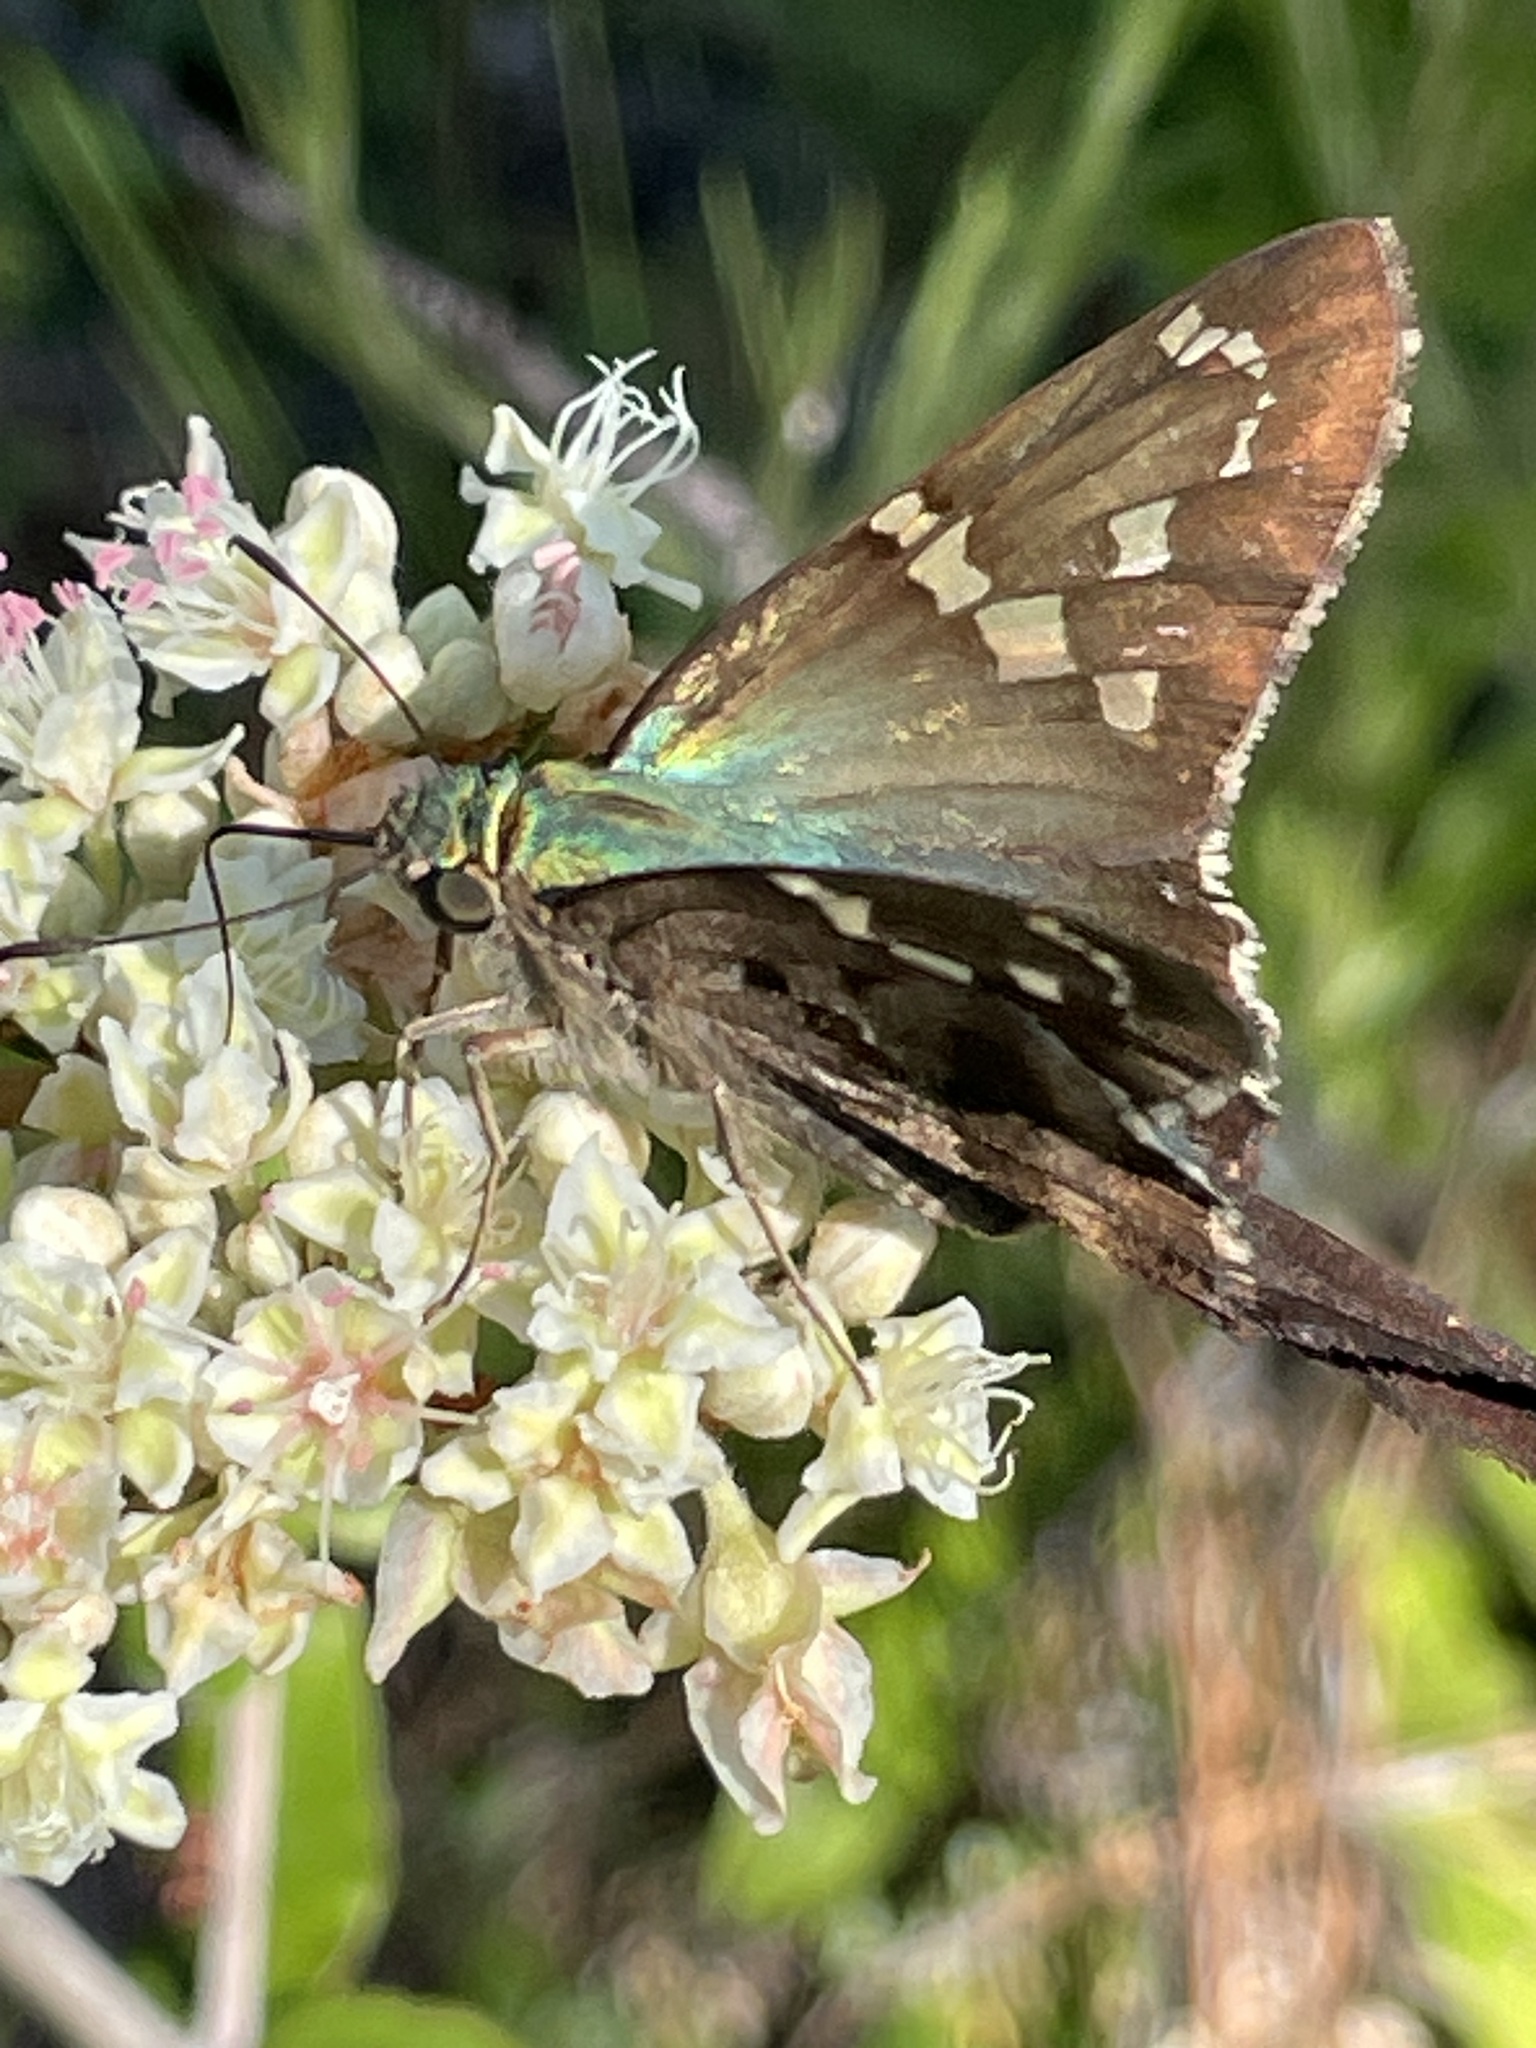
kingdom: Animalia
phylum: Arthropoda
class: Insecta
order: Lepidoptera
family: Hesperiidae
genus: Urbanus
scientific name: Urbanus proteus
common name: Long-tailed skipper
